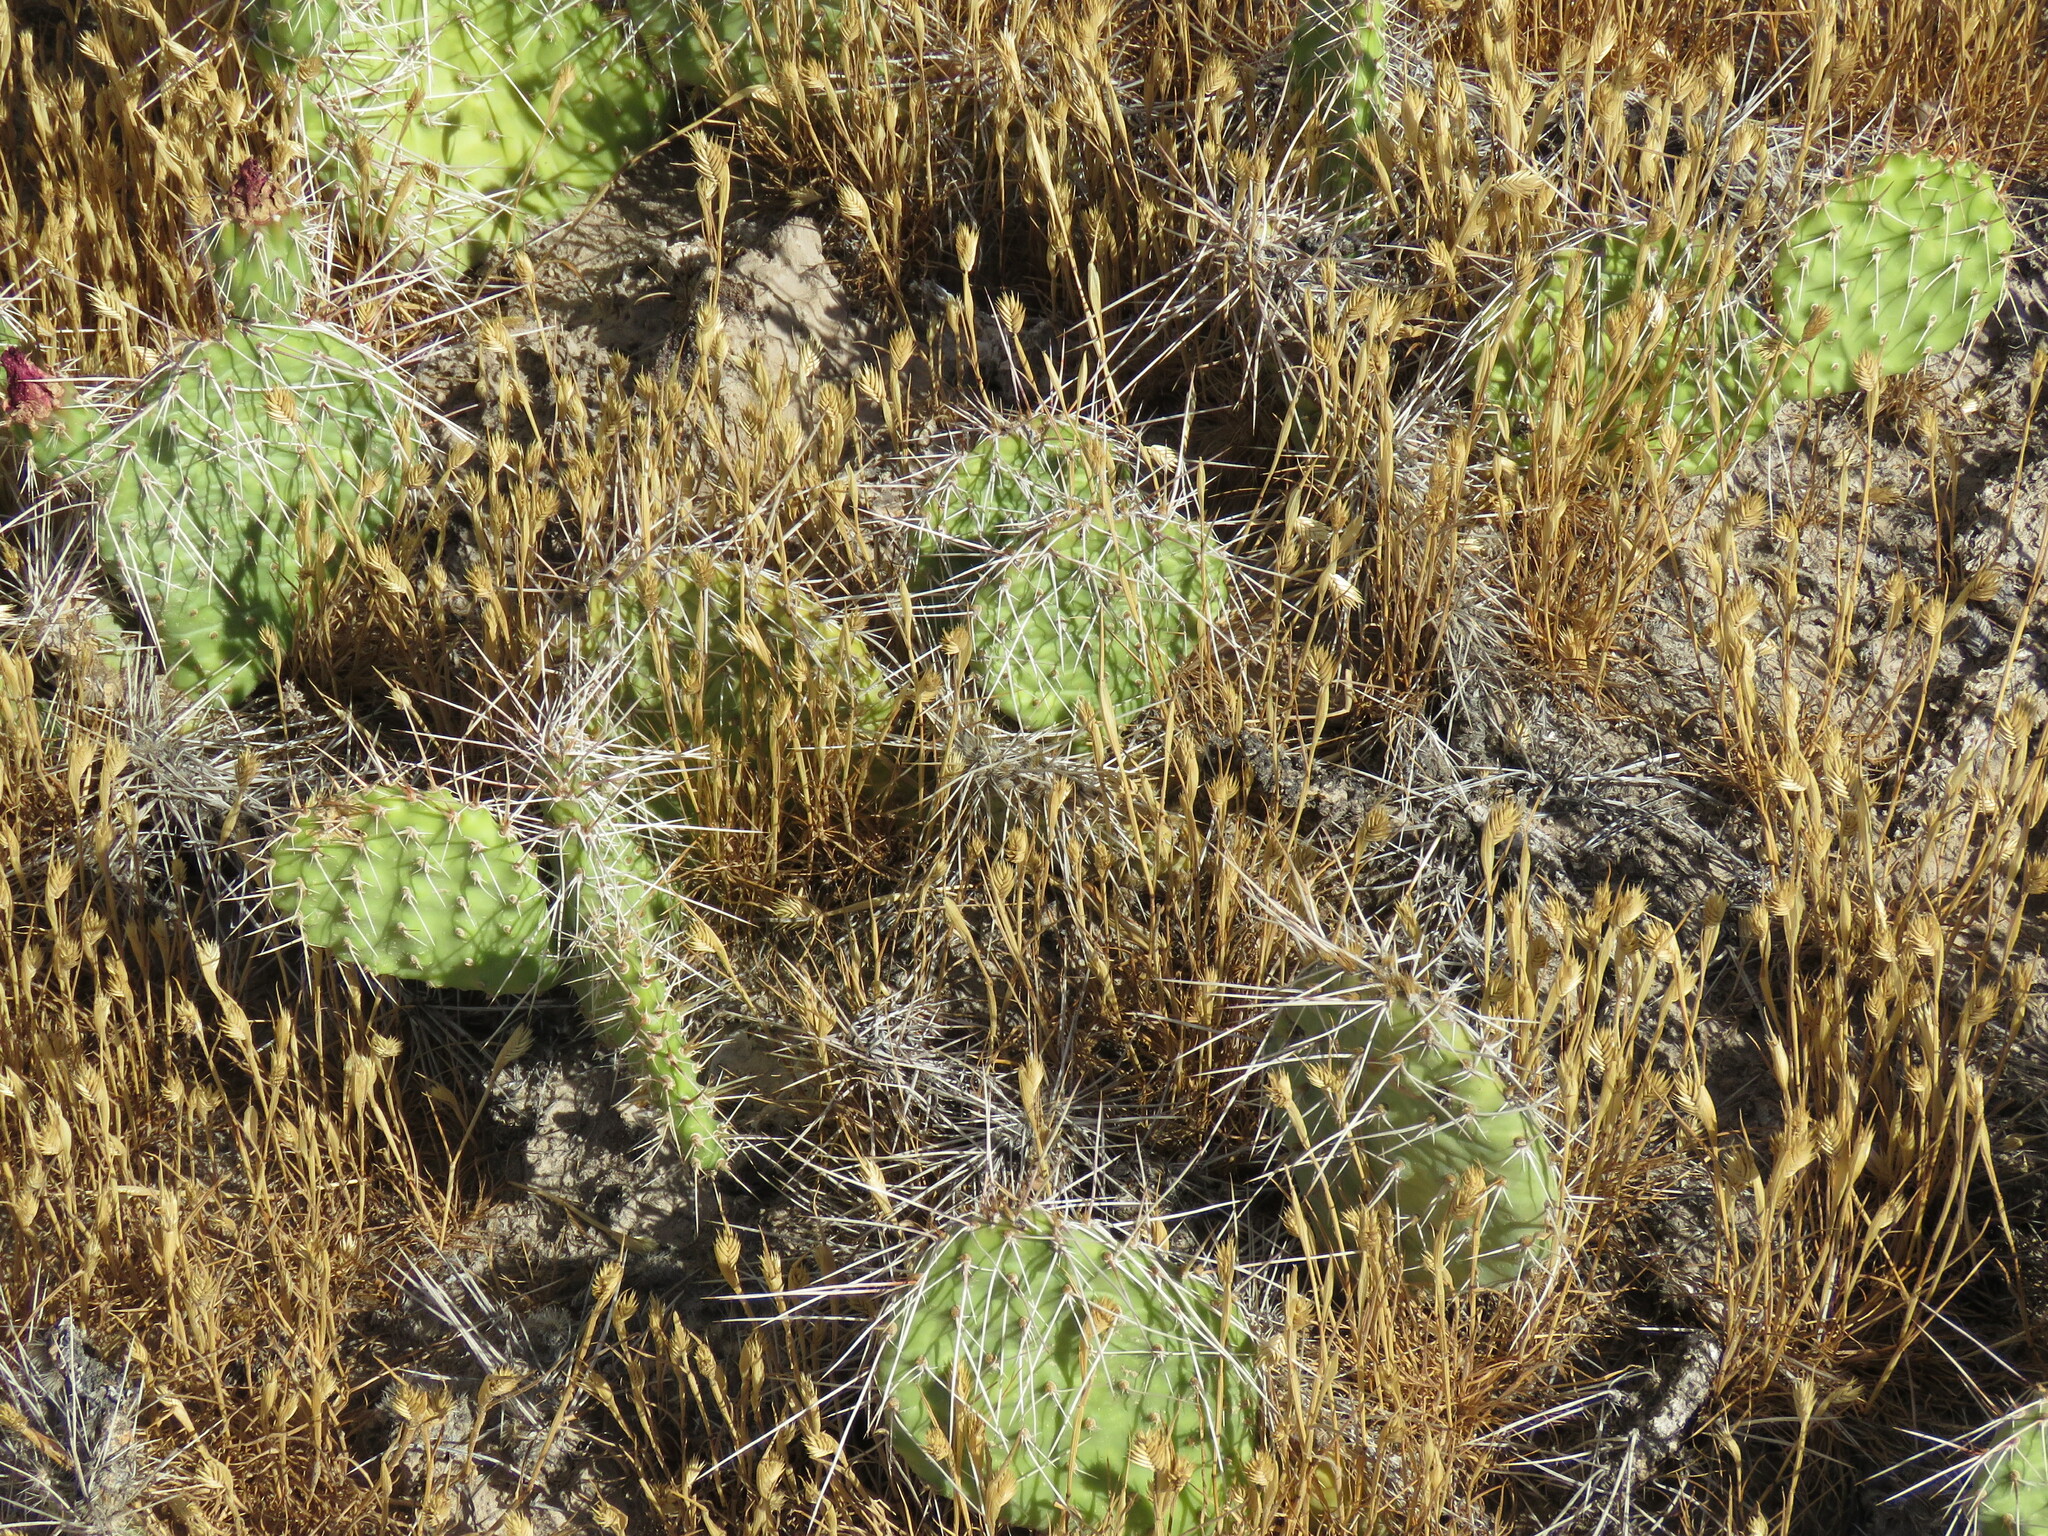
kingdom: Plantae
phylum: Tracheophyta
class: Magnoliopsida
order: Caryophyllales
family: Cactaceae
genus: Opuntia
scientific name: Opuntia polyacantha
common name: Plains prickly-pear
